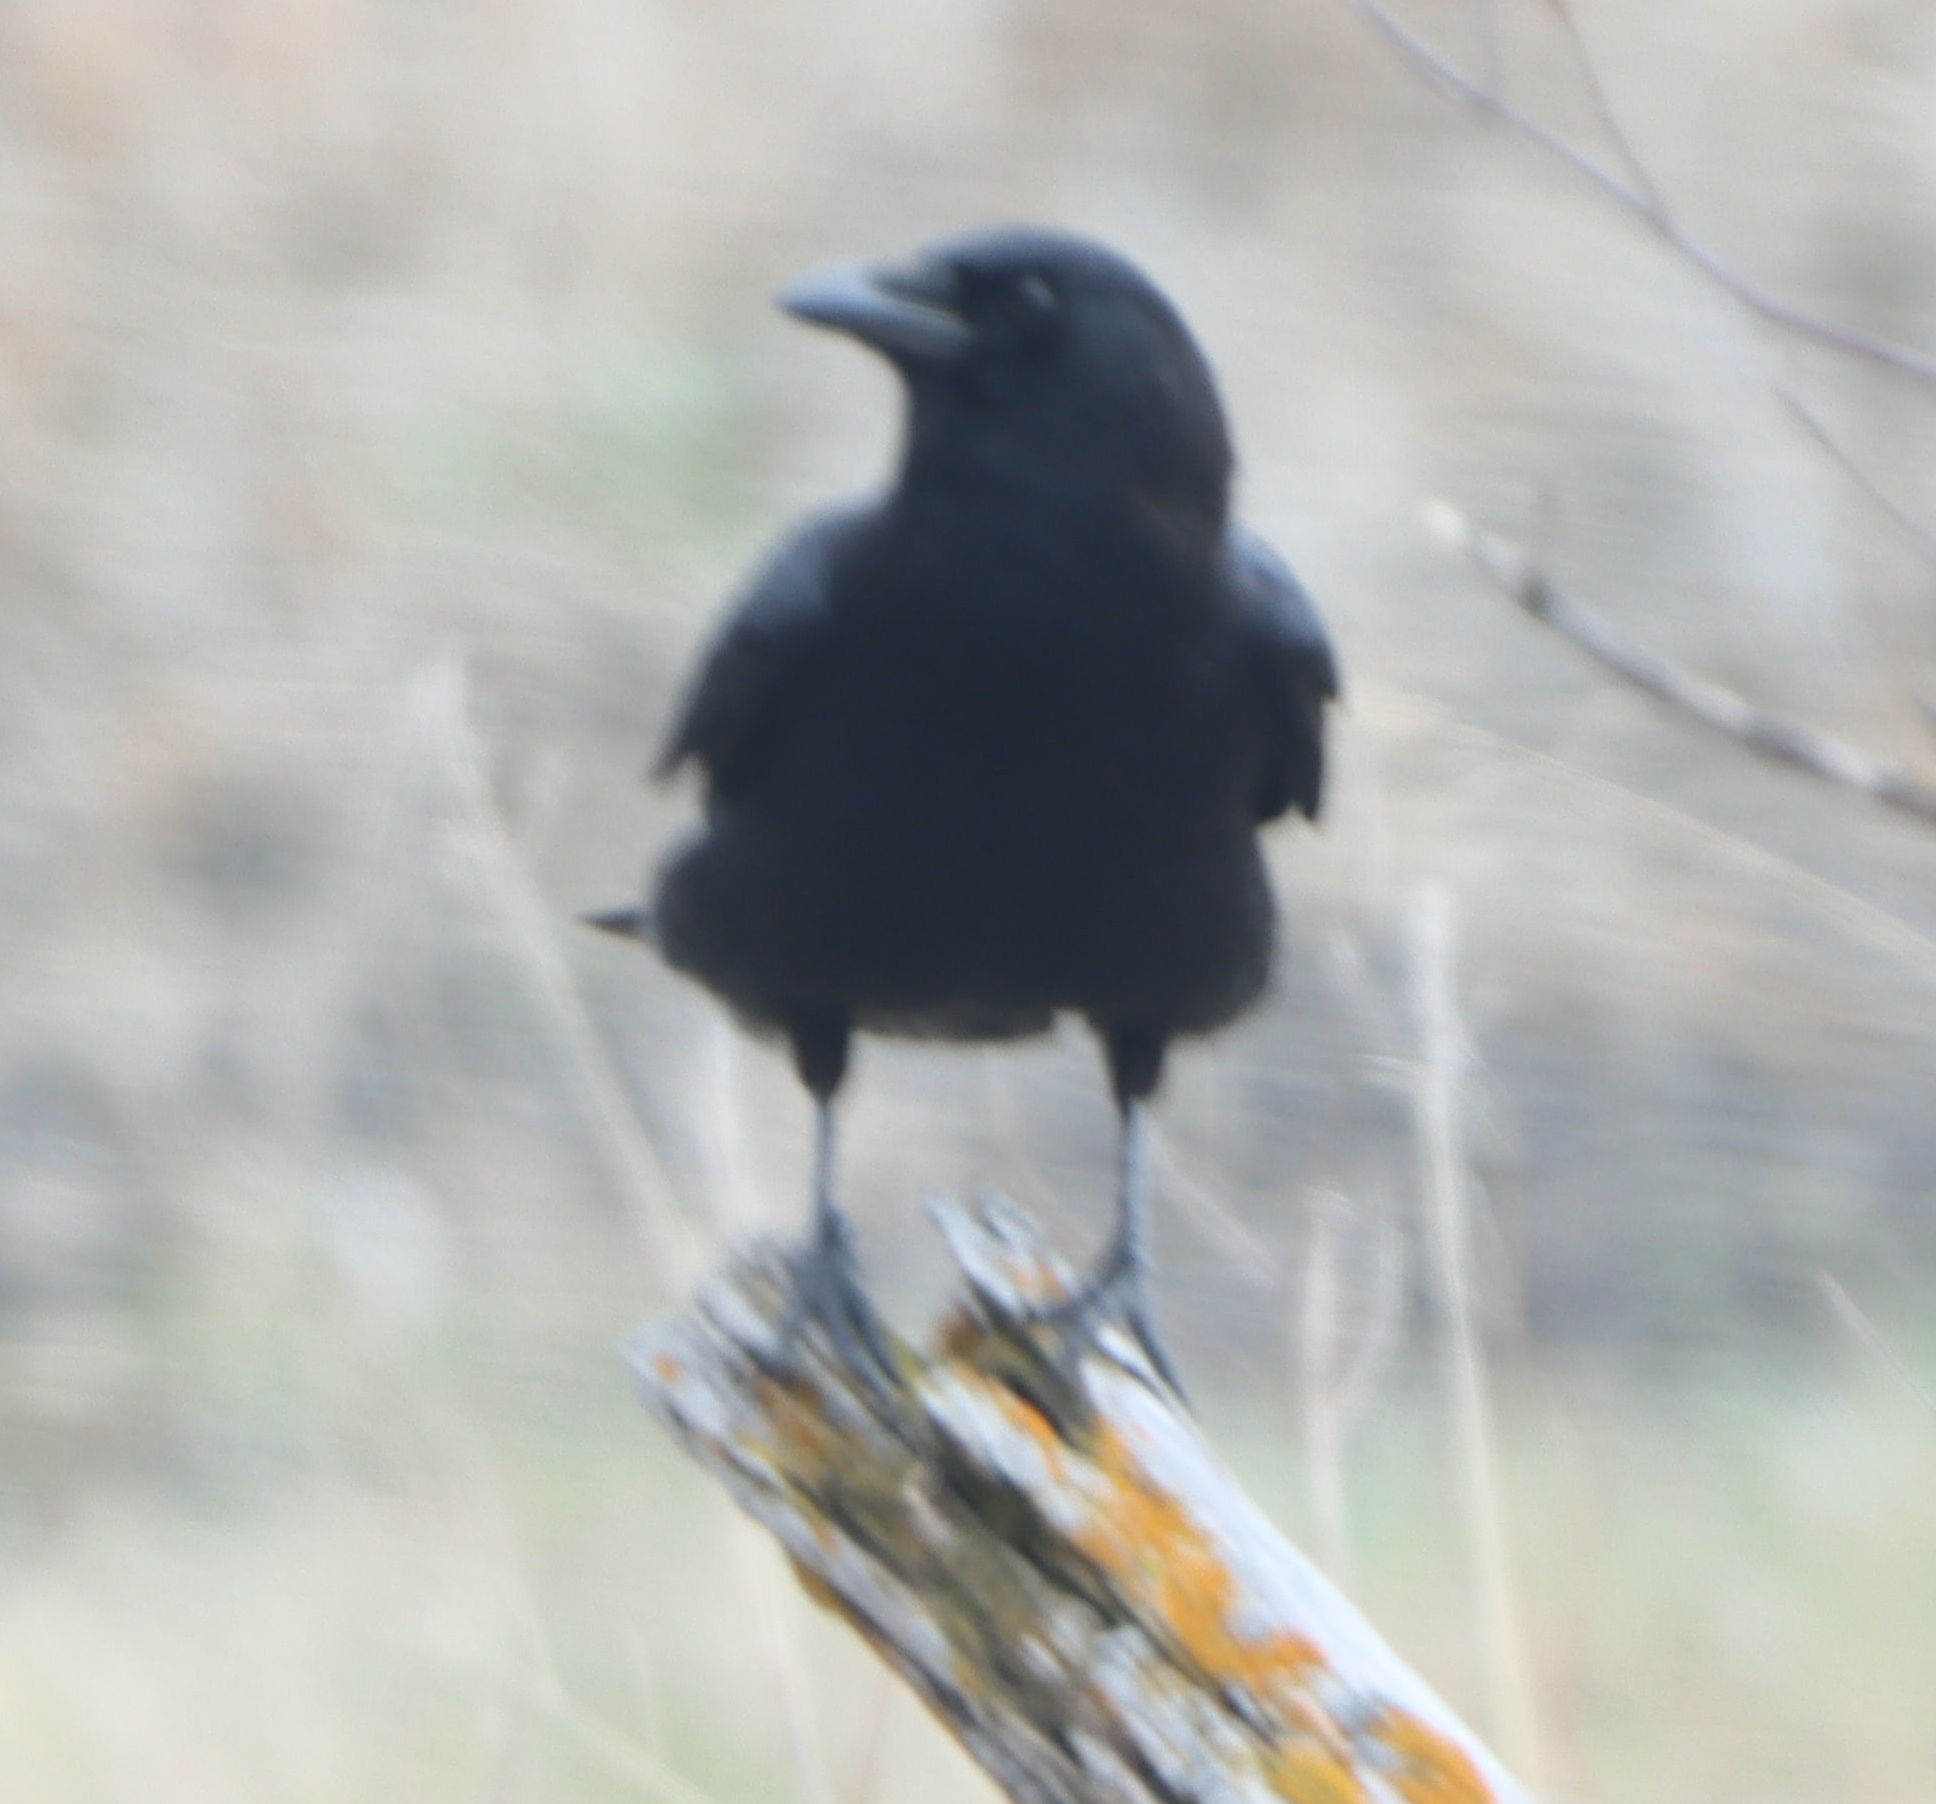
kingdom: Animalia
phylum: Chordata
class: Aves
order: Passeriformes
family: Corvidae
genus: Corvus
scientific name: Corvus brachyrhynchos
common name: American crow
